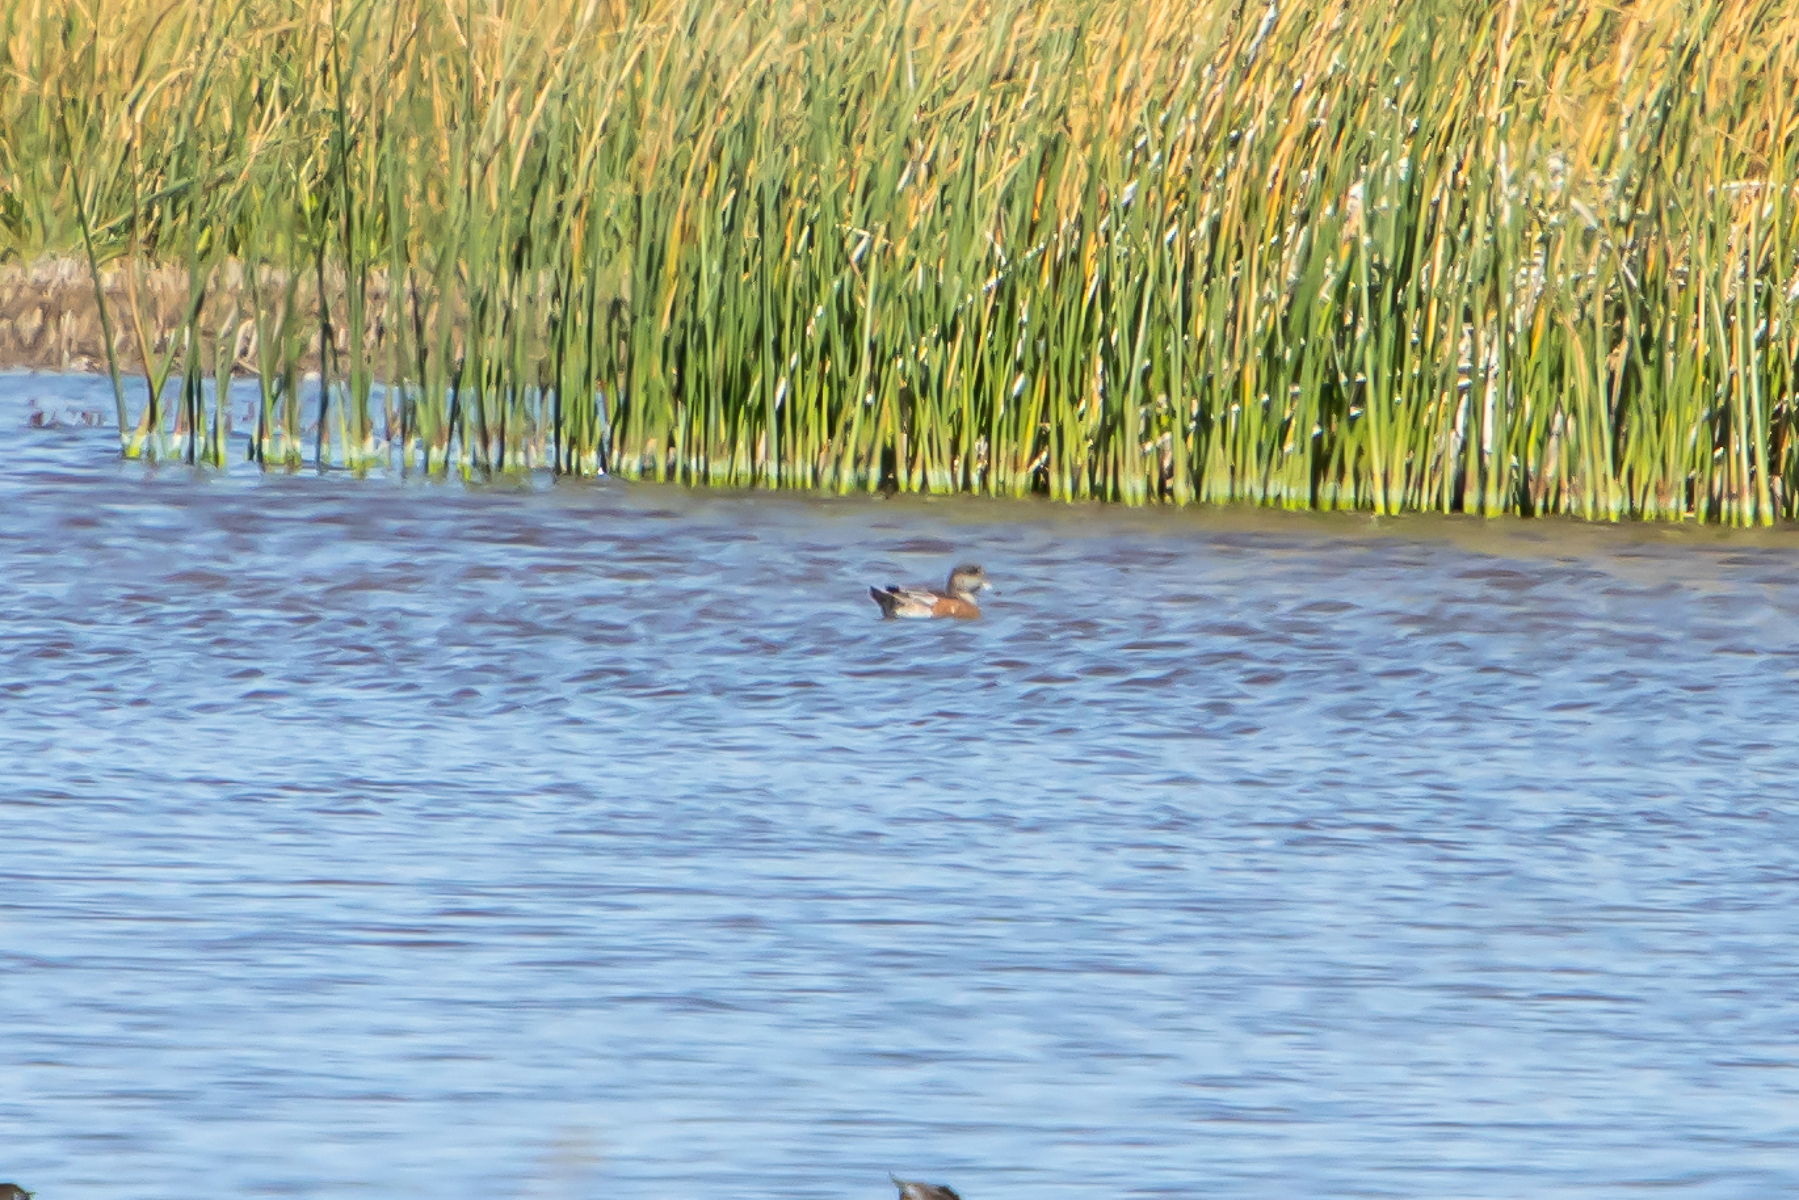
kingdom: Animalia
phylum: Chordata
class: Aves
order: Anseriformes
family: Anatidae
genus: Mareca
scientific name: Mareca americana
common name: American wigeon
